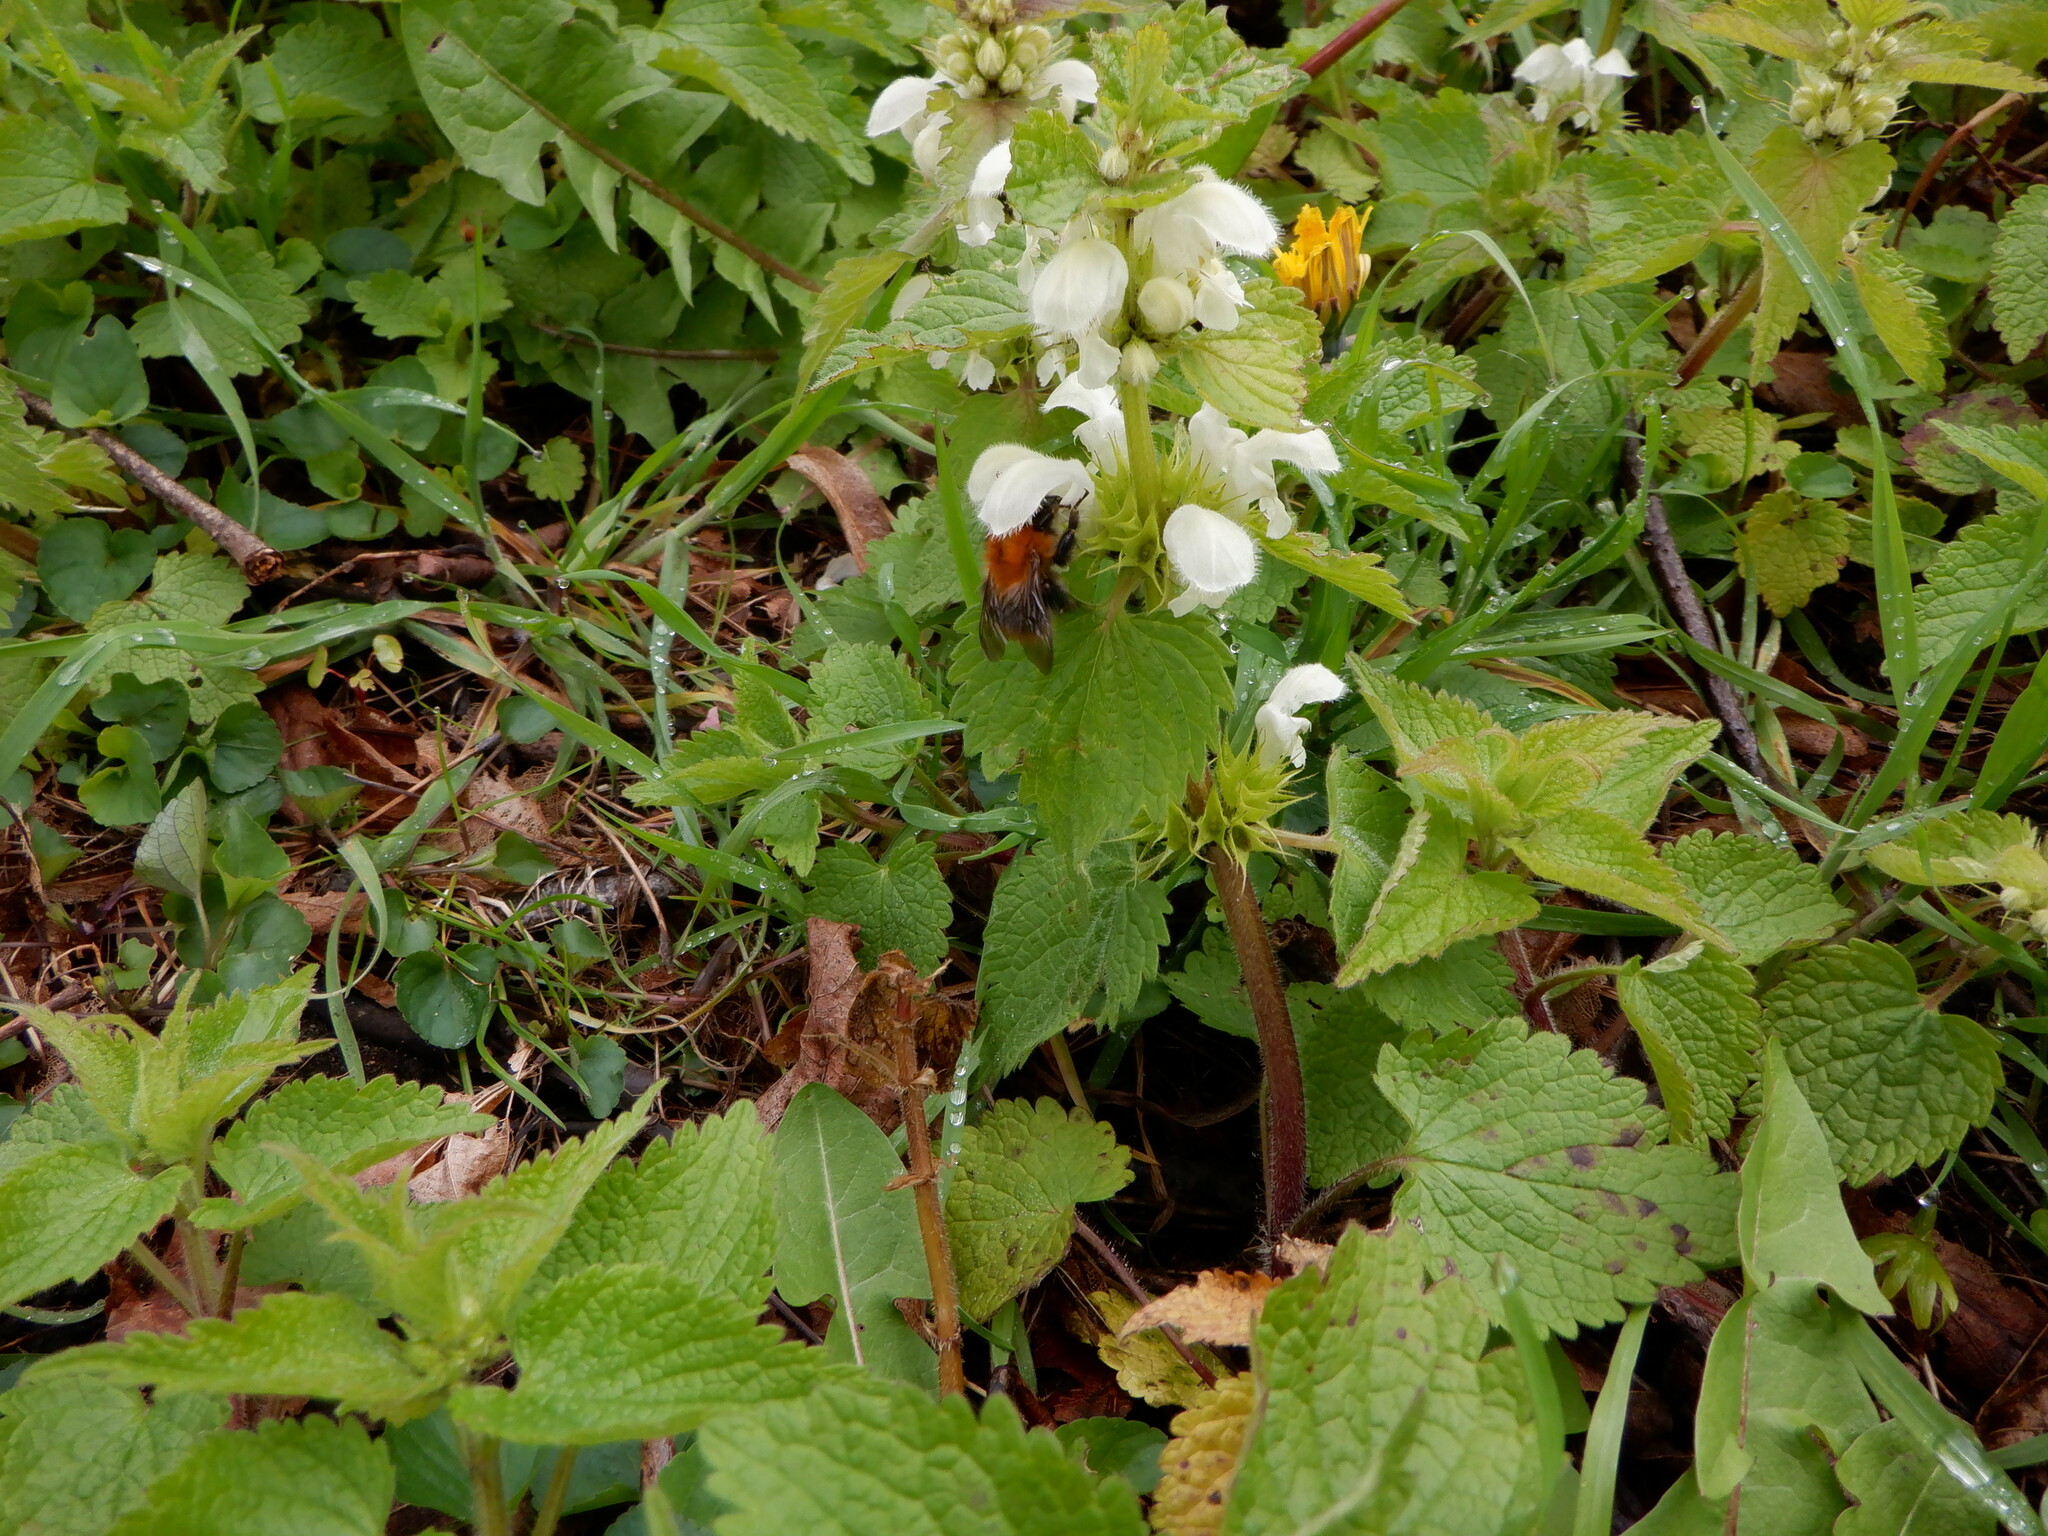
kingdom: Plantae
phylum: Tracheophyta
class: Magnoliopsida
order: Lamiales
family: Lamiaceae
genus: Lamium
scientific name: Lamium album
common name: White dead-nettle
